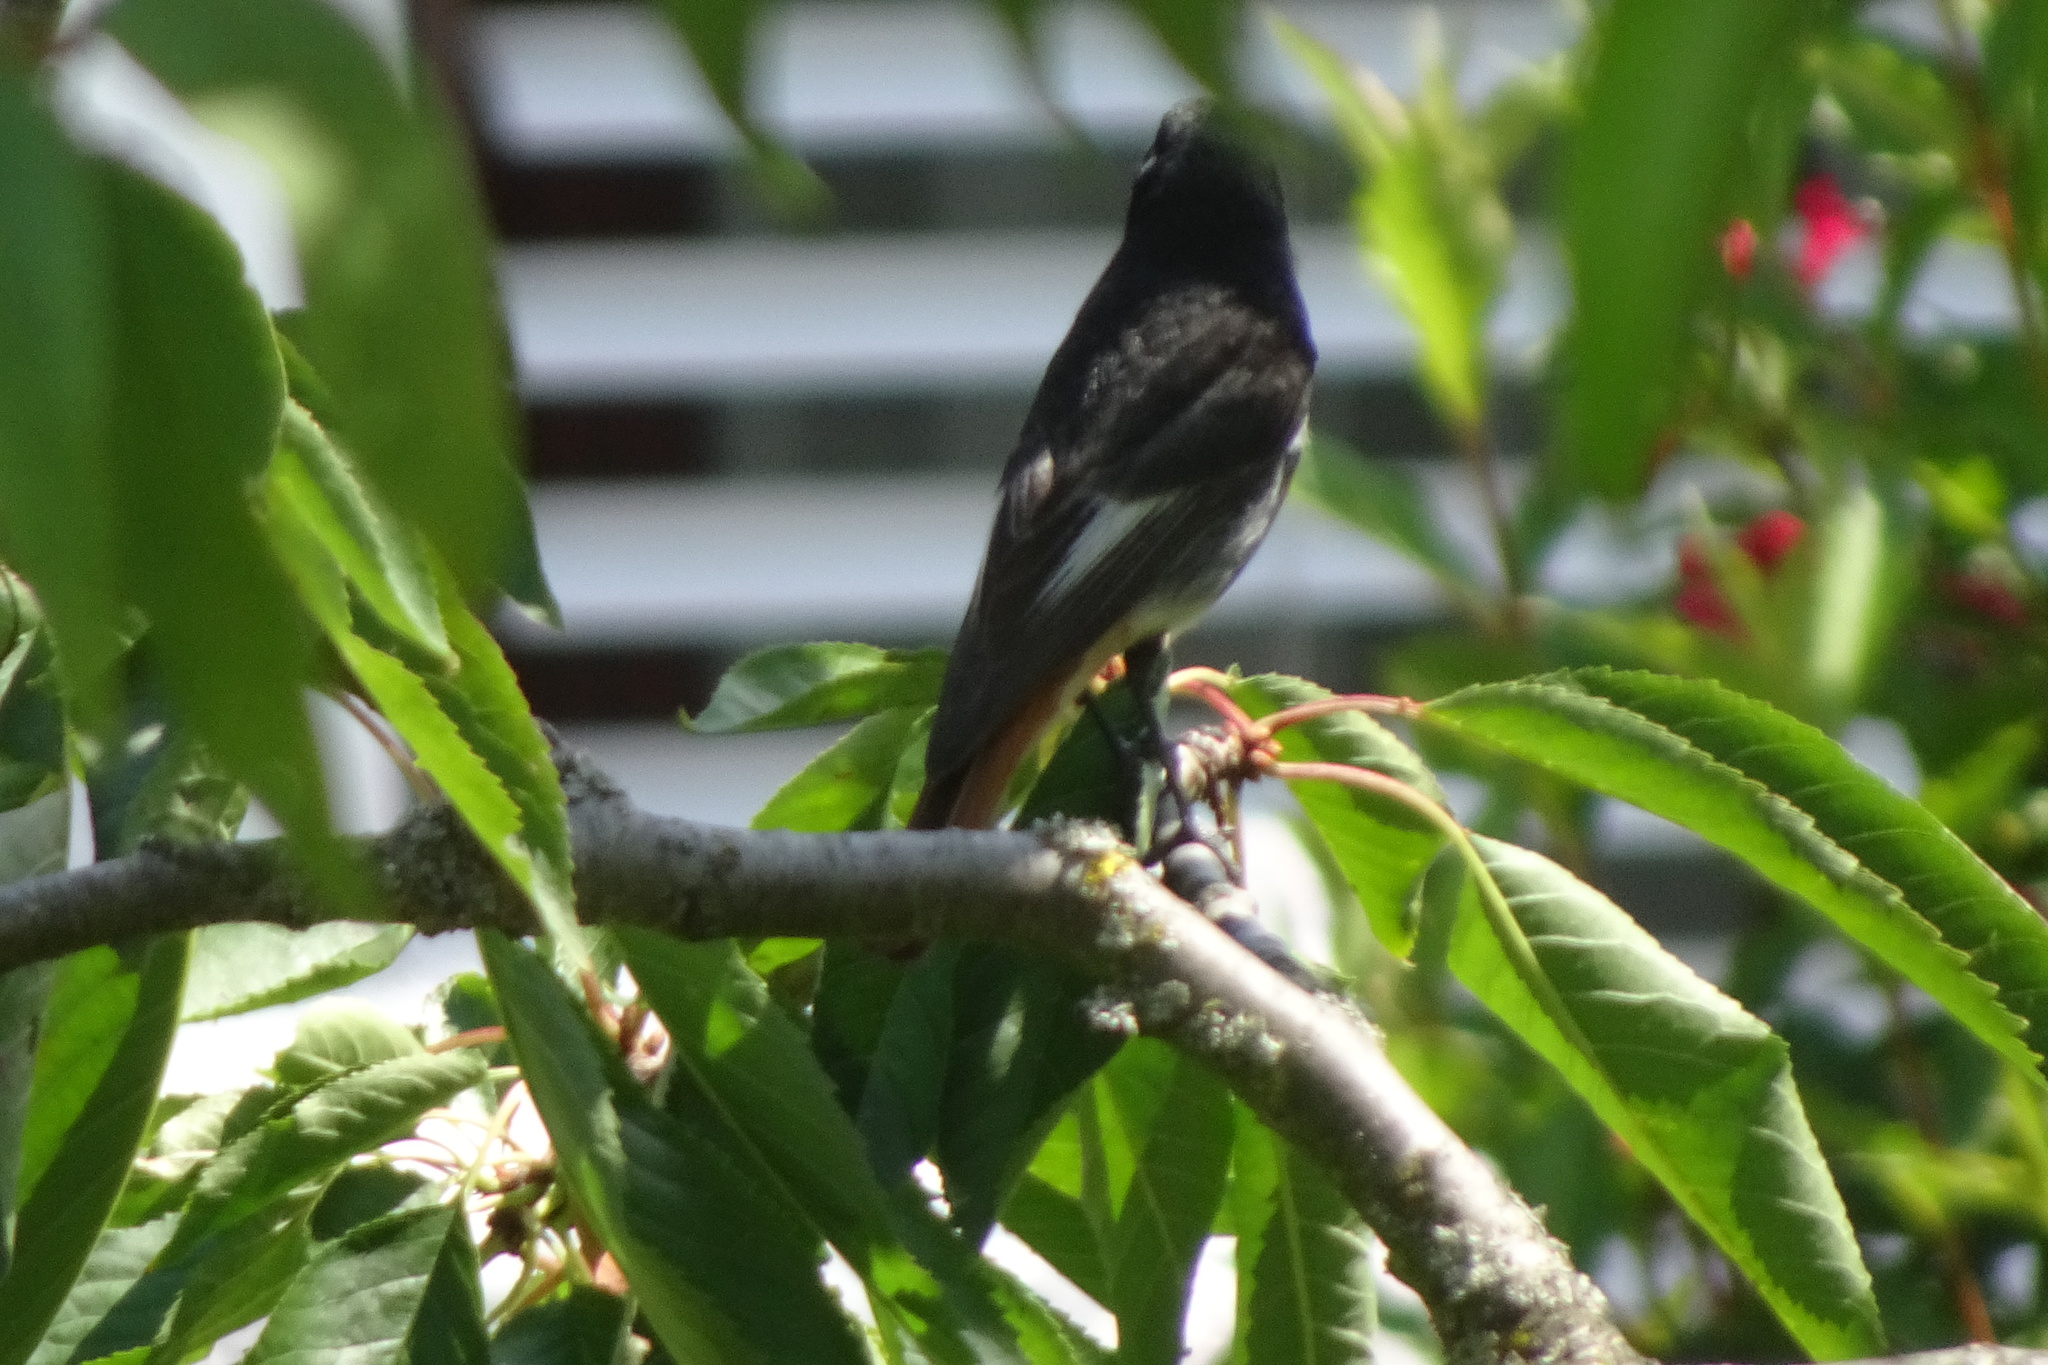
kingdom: Animalia
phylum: Chordata
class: Aves
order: Passeriformes
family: Muscicapidae
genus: Phoenicurus
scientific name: Phoenicurus ochruros
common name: Black redstart
